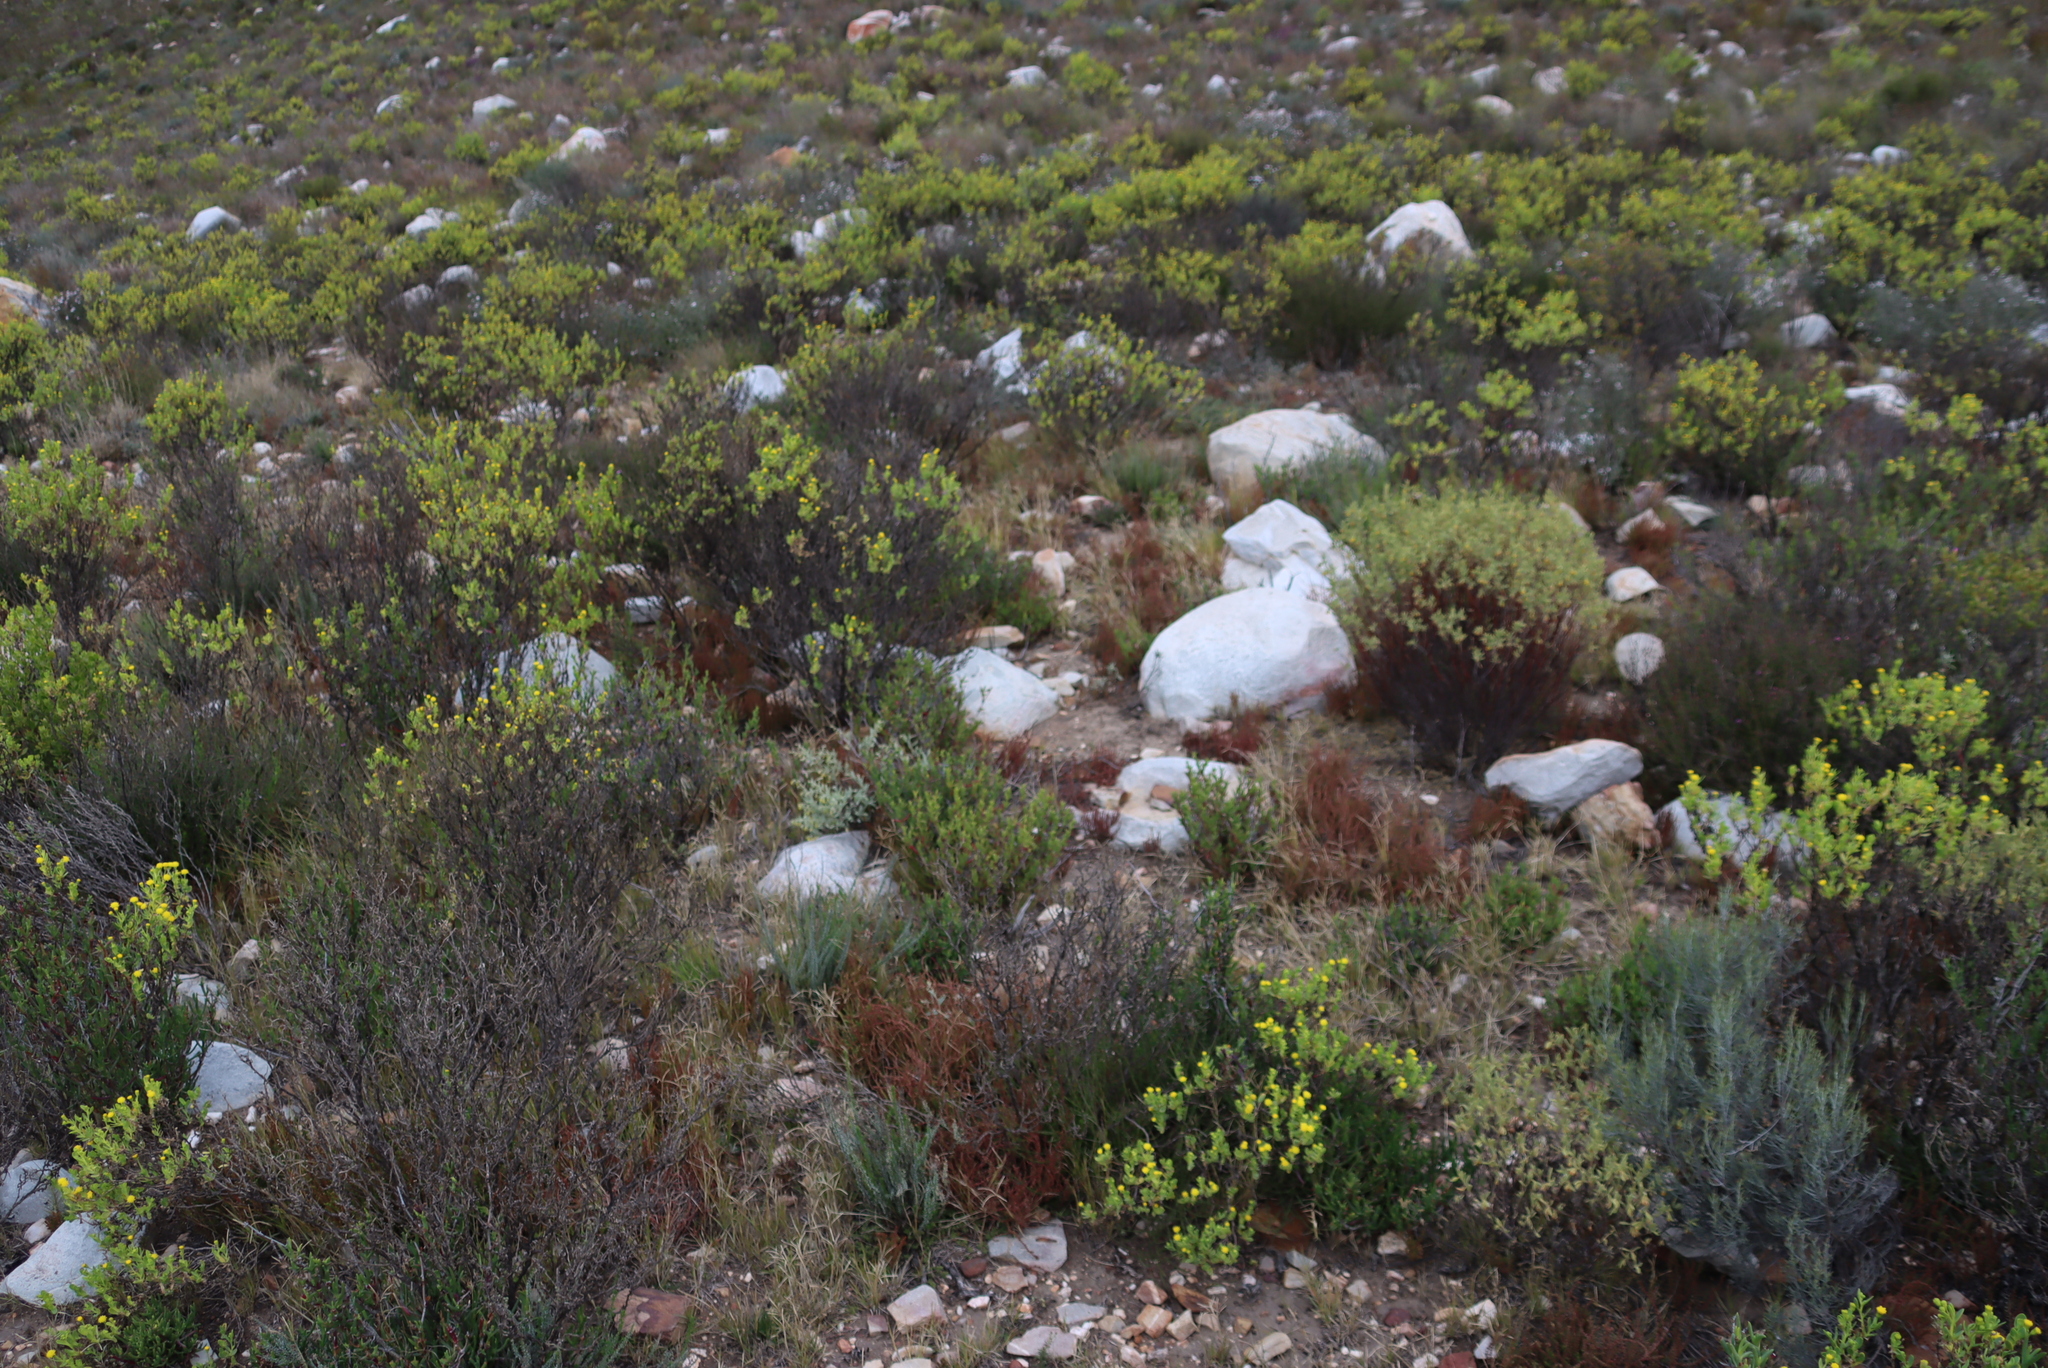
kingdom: Plantae
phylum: Tracheophyta
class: Magnoliopsida
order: Saxifragales
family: Crassulaceae
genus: Crassula
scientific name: Crassula muscosa
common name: Toy-cypress
